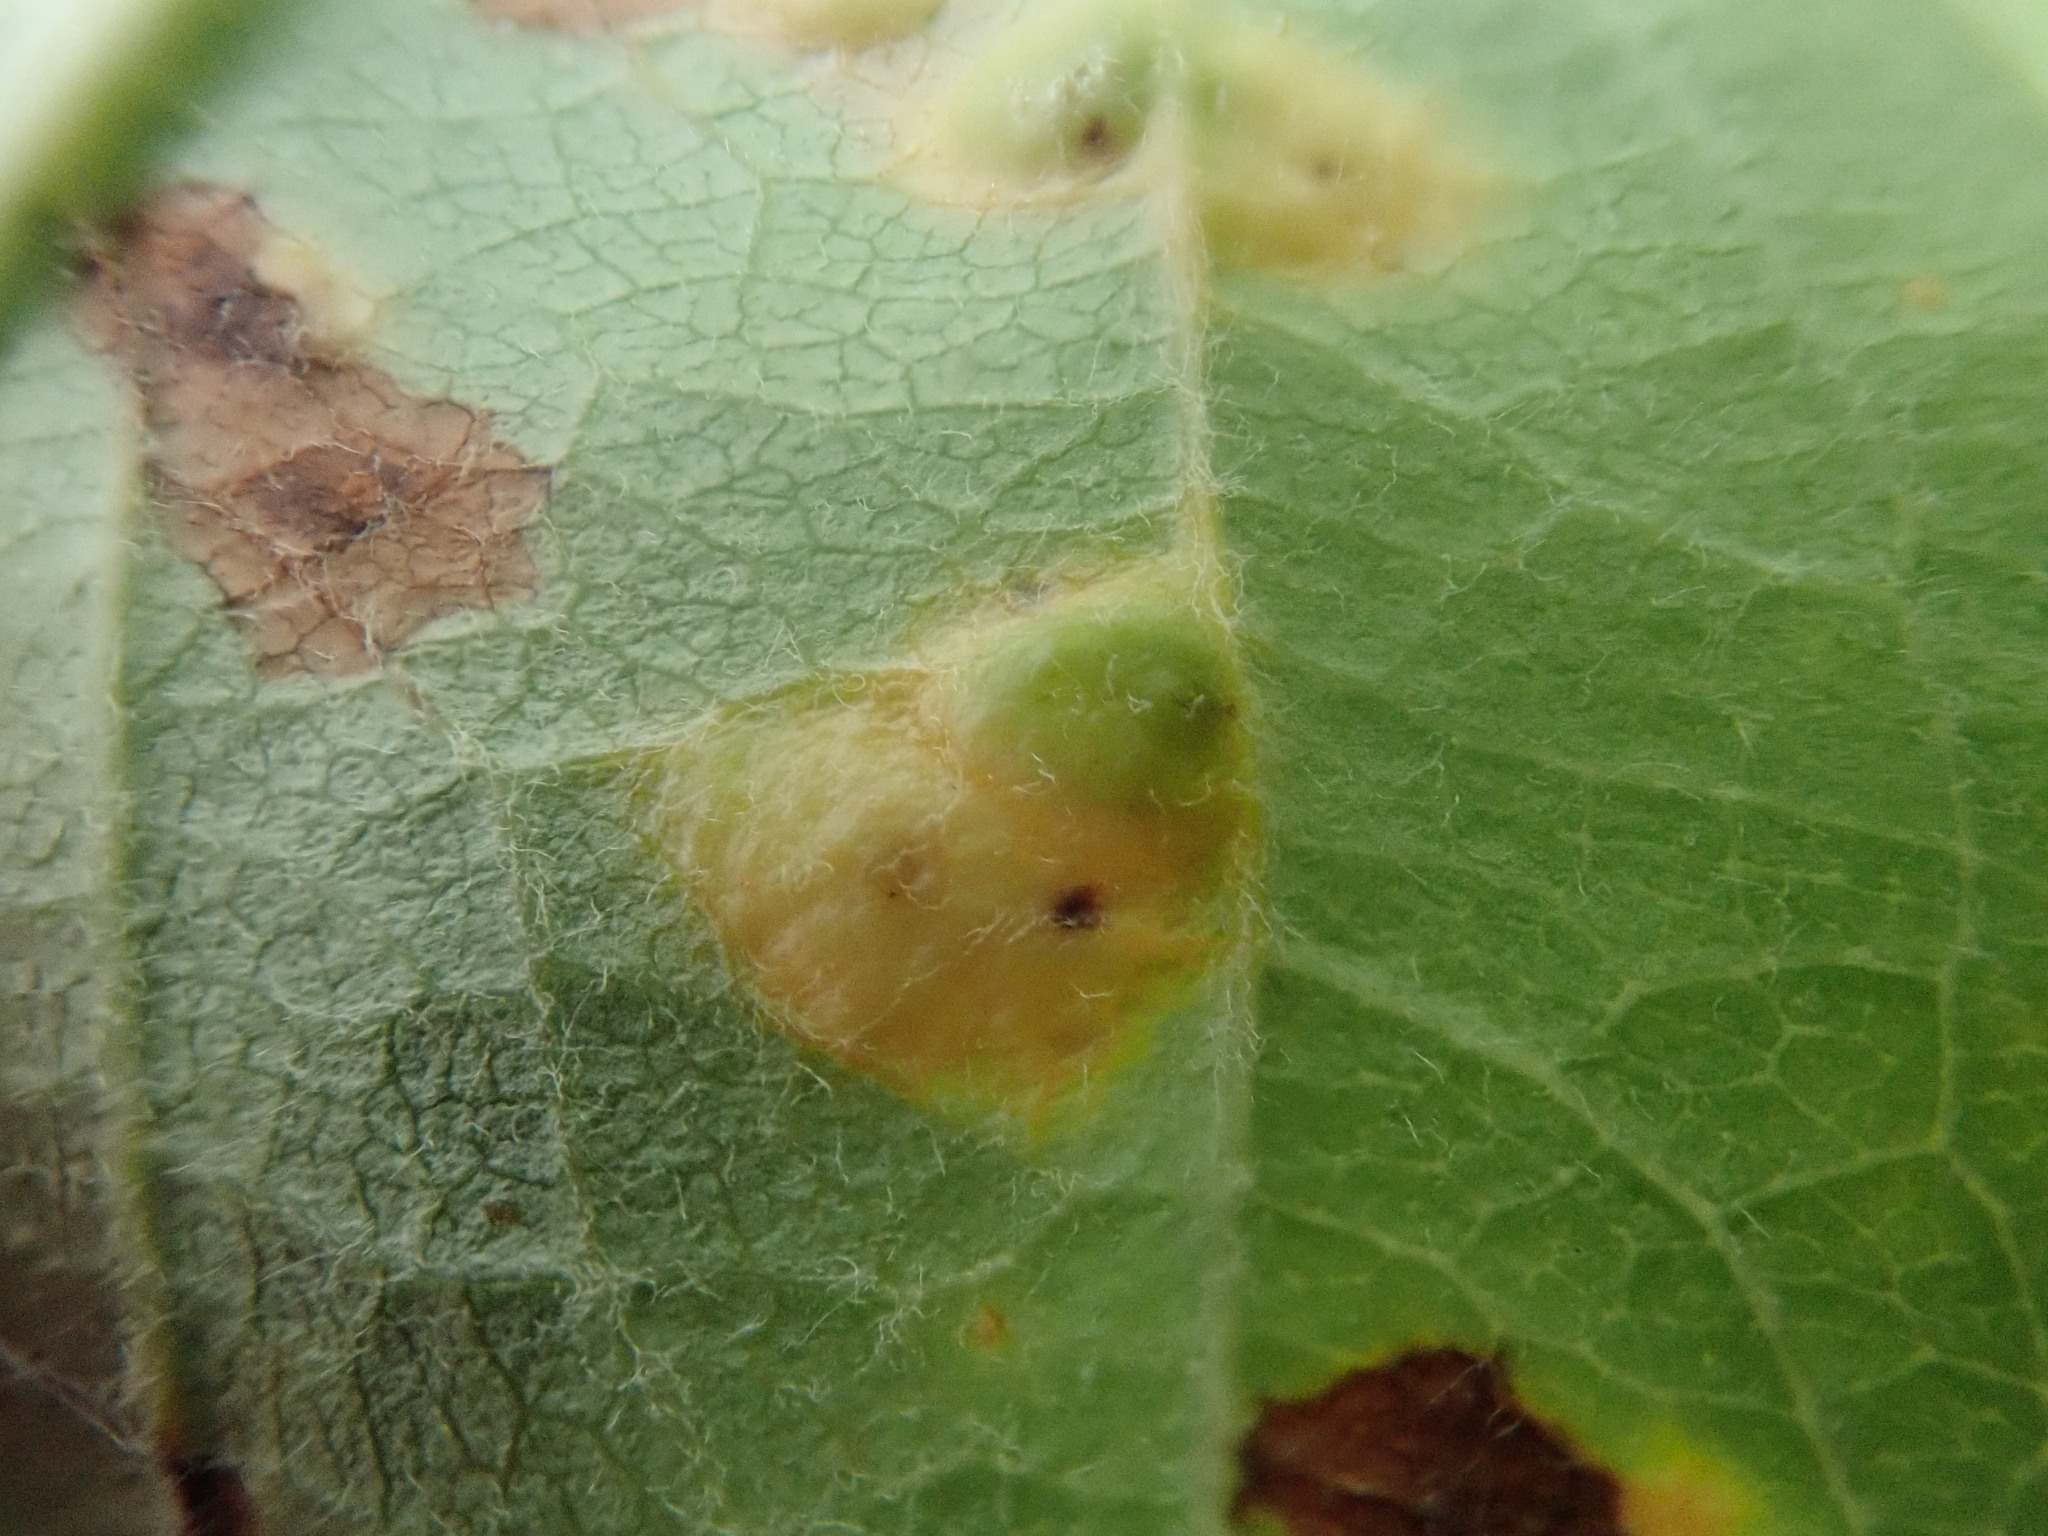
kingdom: Fungi
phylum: Basidiomycota
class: Pucciniomycetes
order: Pucciniales
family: Gymnosporangiaceae
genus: Gymnosporangium
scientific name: Gymnosporangium globosum
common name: Juniper-hawthorn rust
